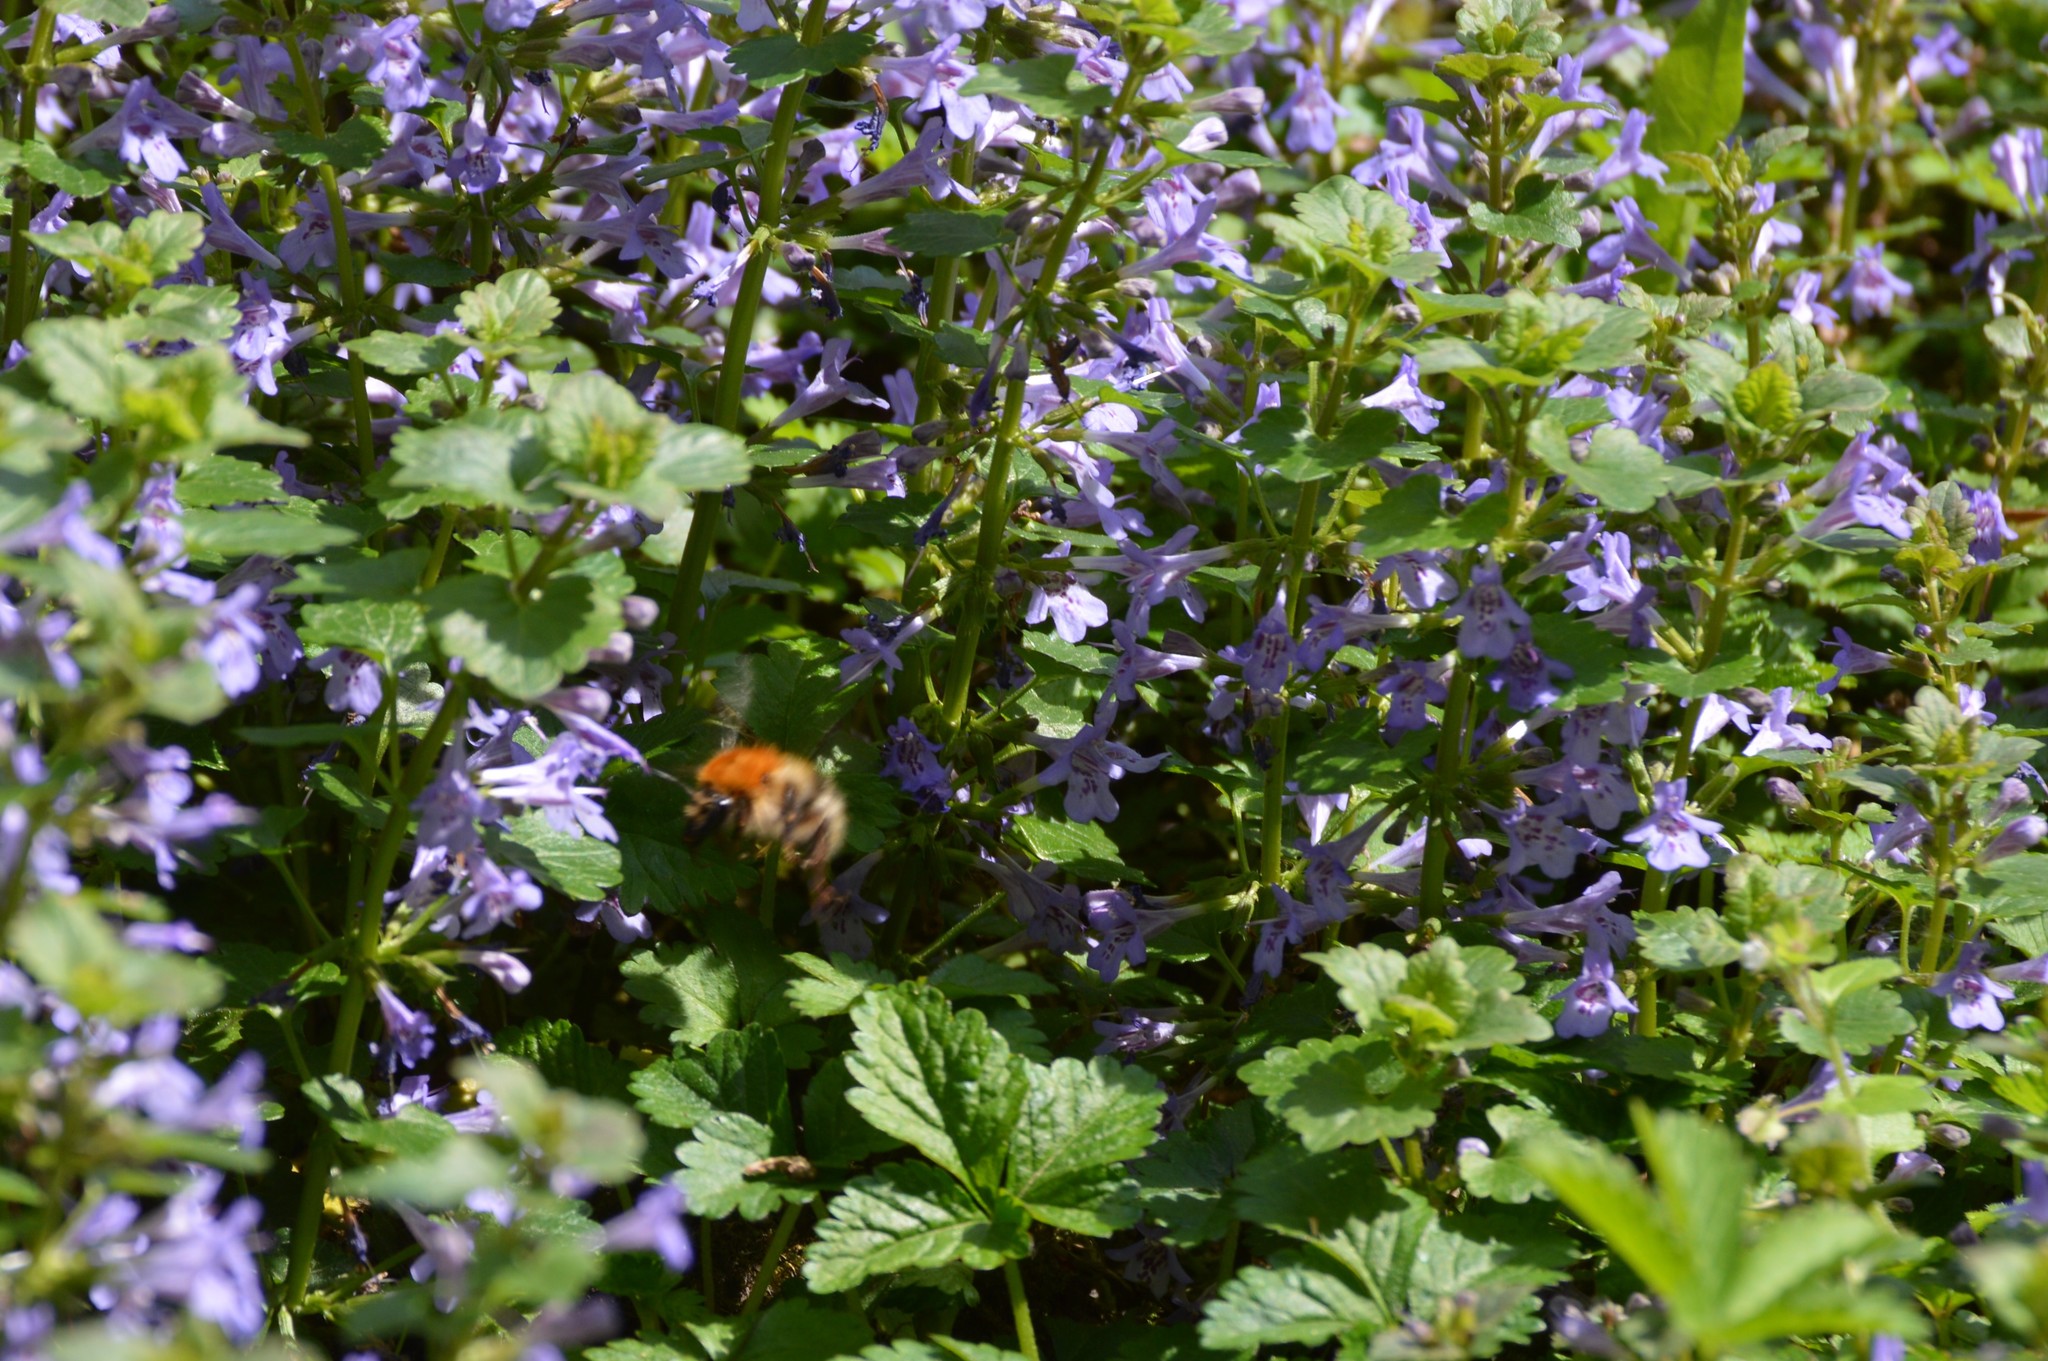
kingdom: Animalia
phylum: Arthropoda
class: Insecta
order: Hymenoptera
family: Apidae
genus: Bombus
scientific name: Bombus pascuorum
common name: Common carder bee
